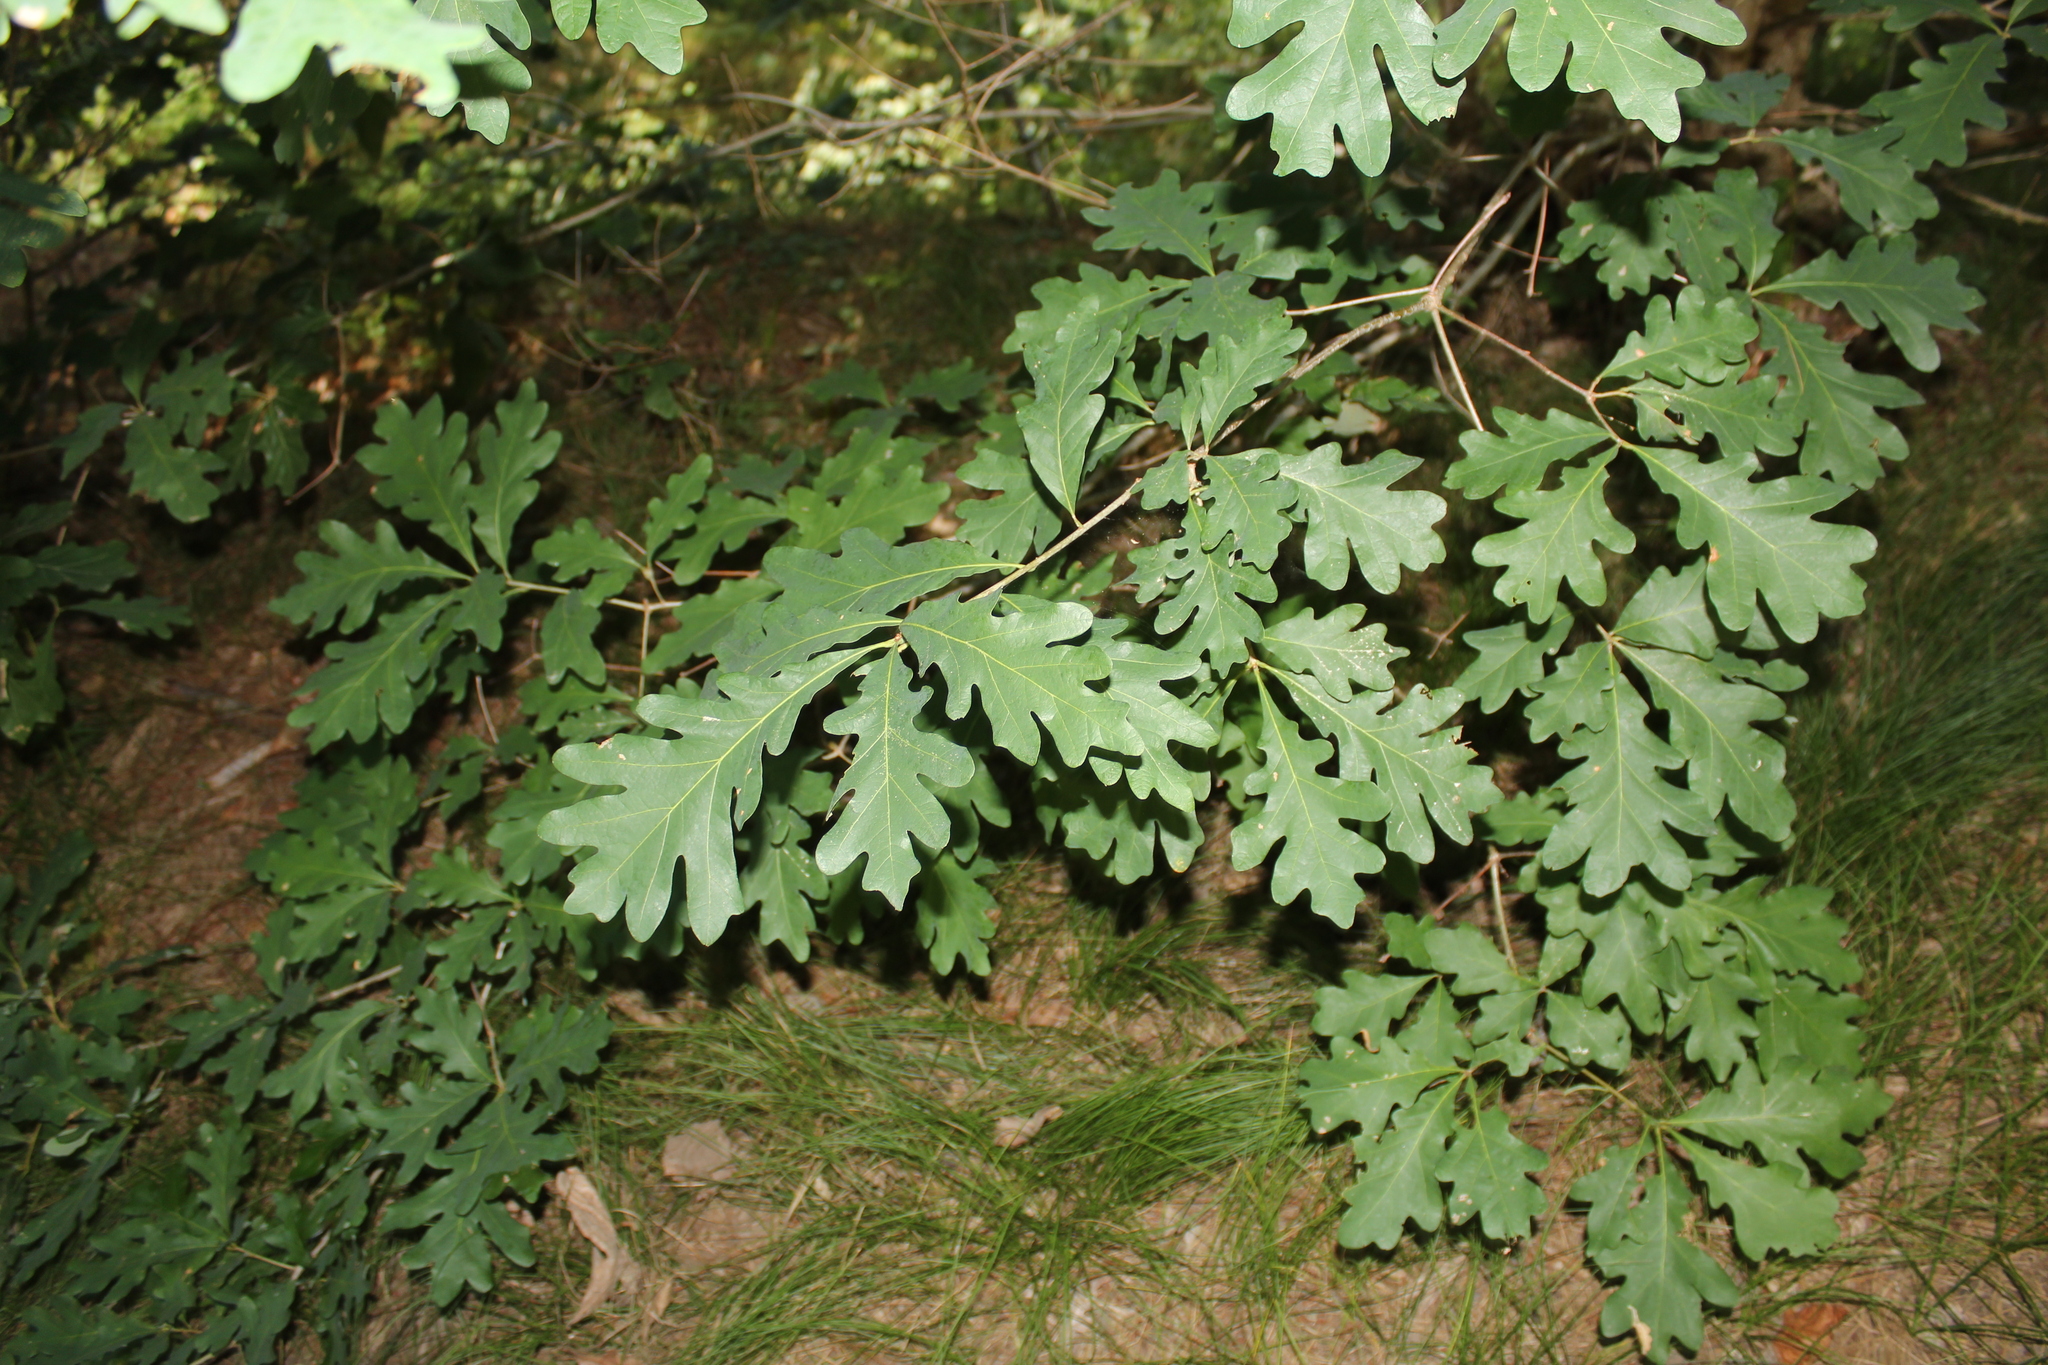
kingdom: Plantae
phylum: Tracheophyta
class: Magnoliopsida
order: Fagales
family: Fagaceae
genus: Quercus
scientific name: Quercus alba
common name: White oak
